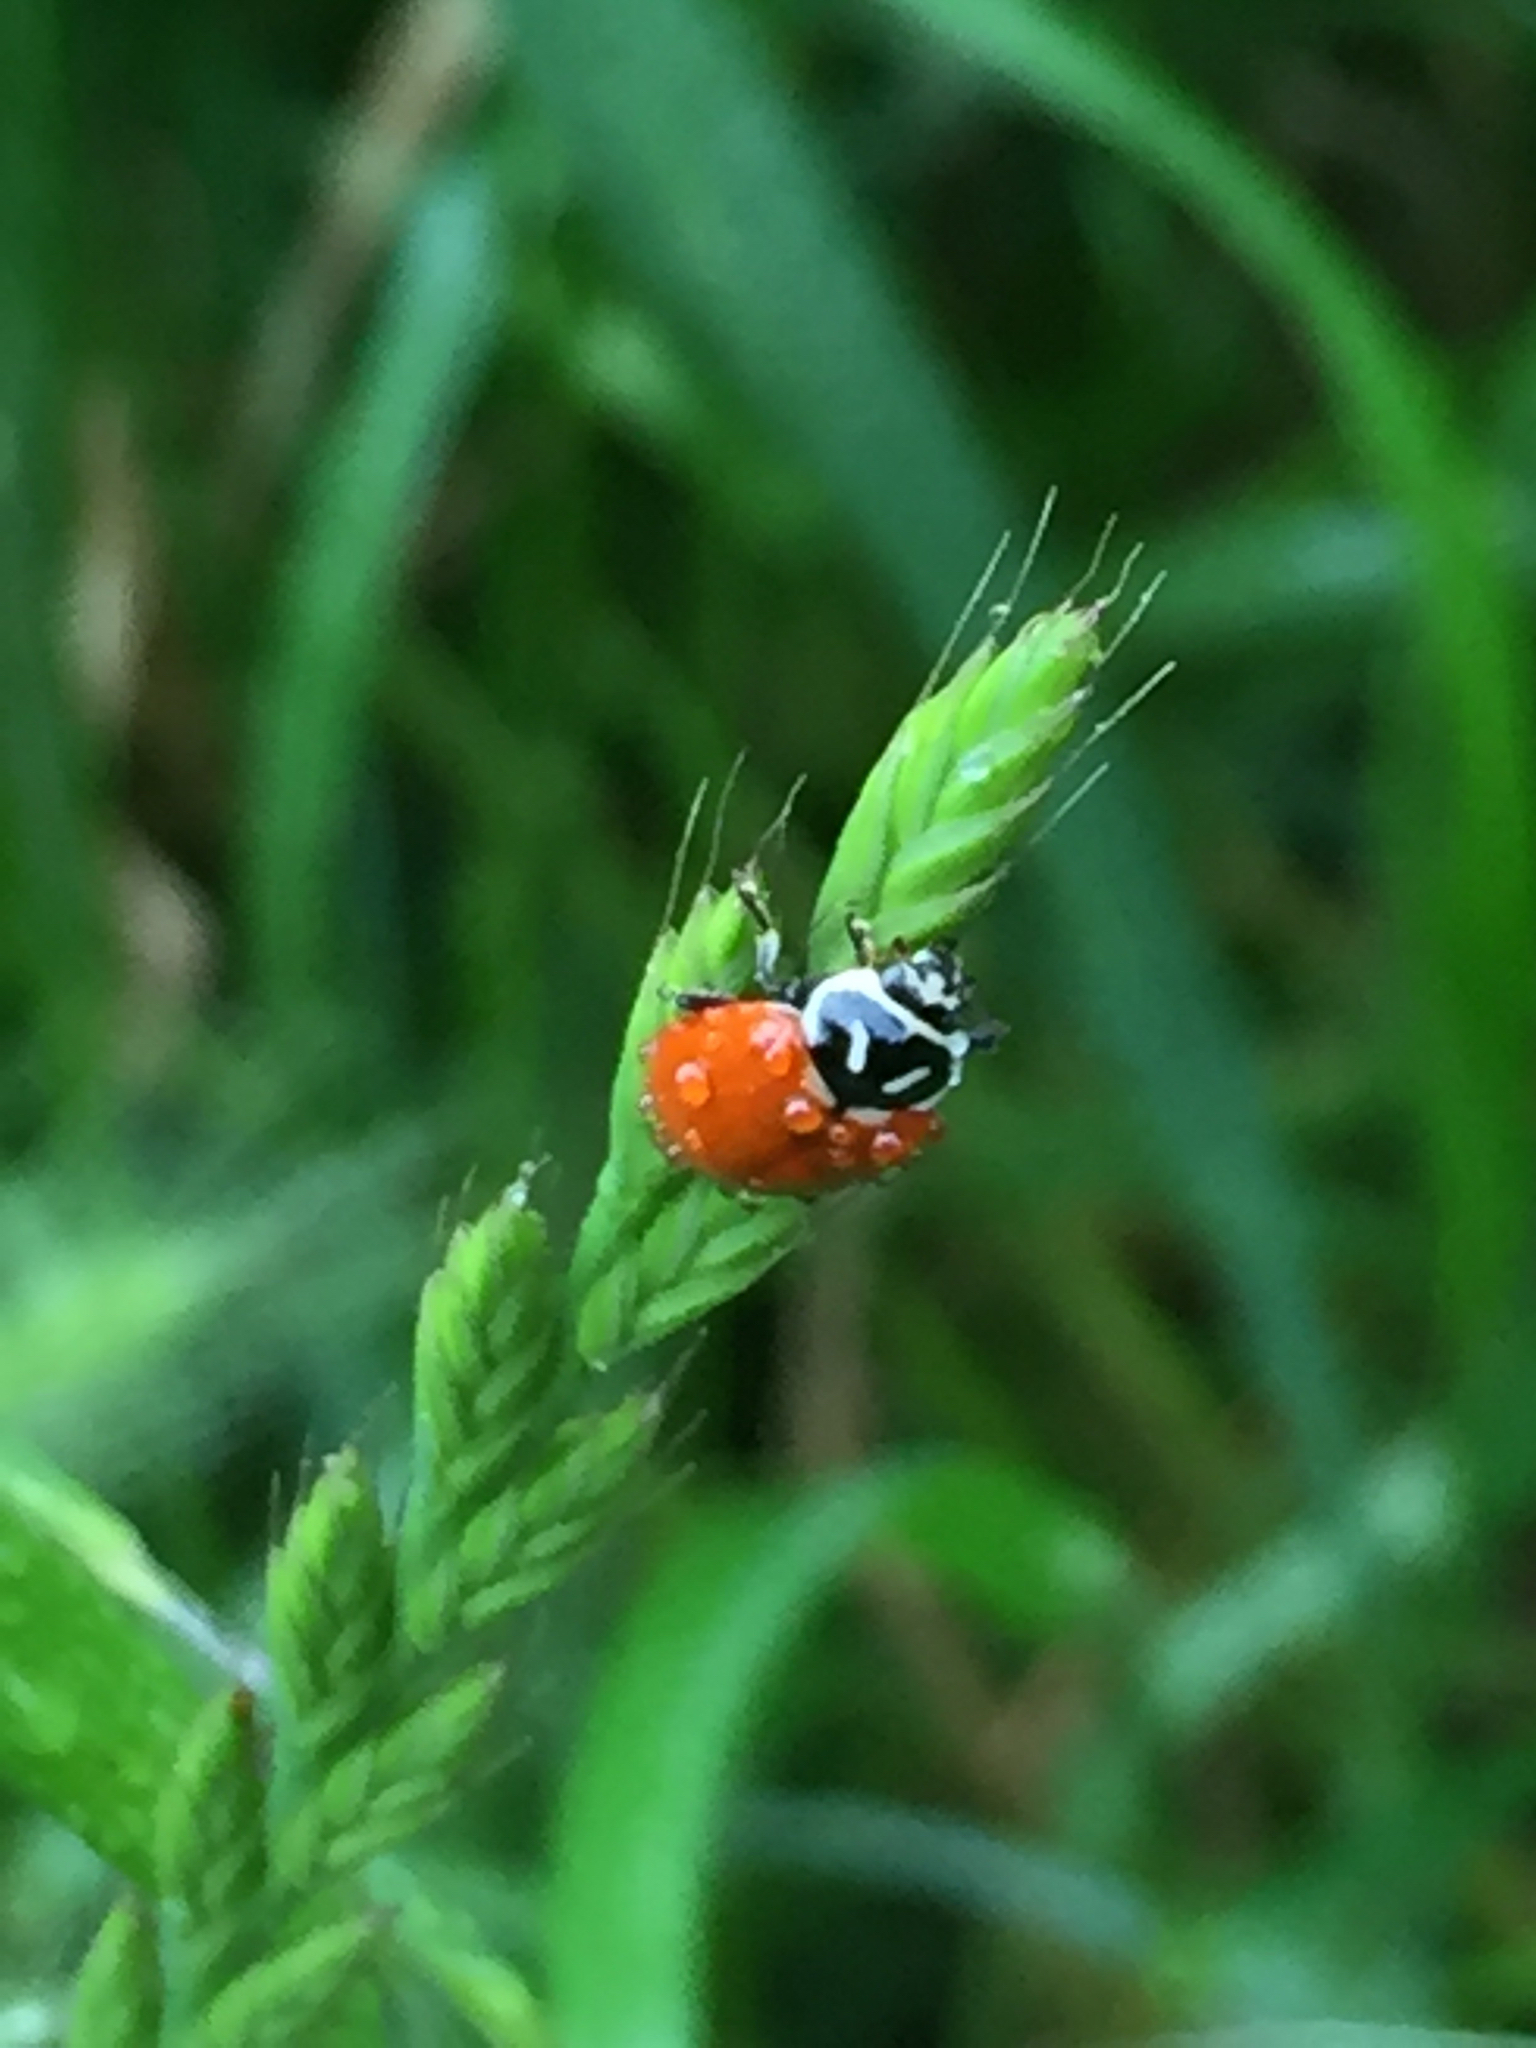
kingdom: Animalia
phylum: Arthropoda
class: Insecta
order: Coleoptera
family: Coccinellidae
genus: Hippodamia
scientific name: Hippodamia convergens
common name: Convergent lady beetle
